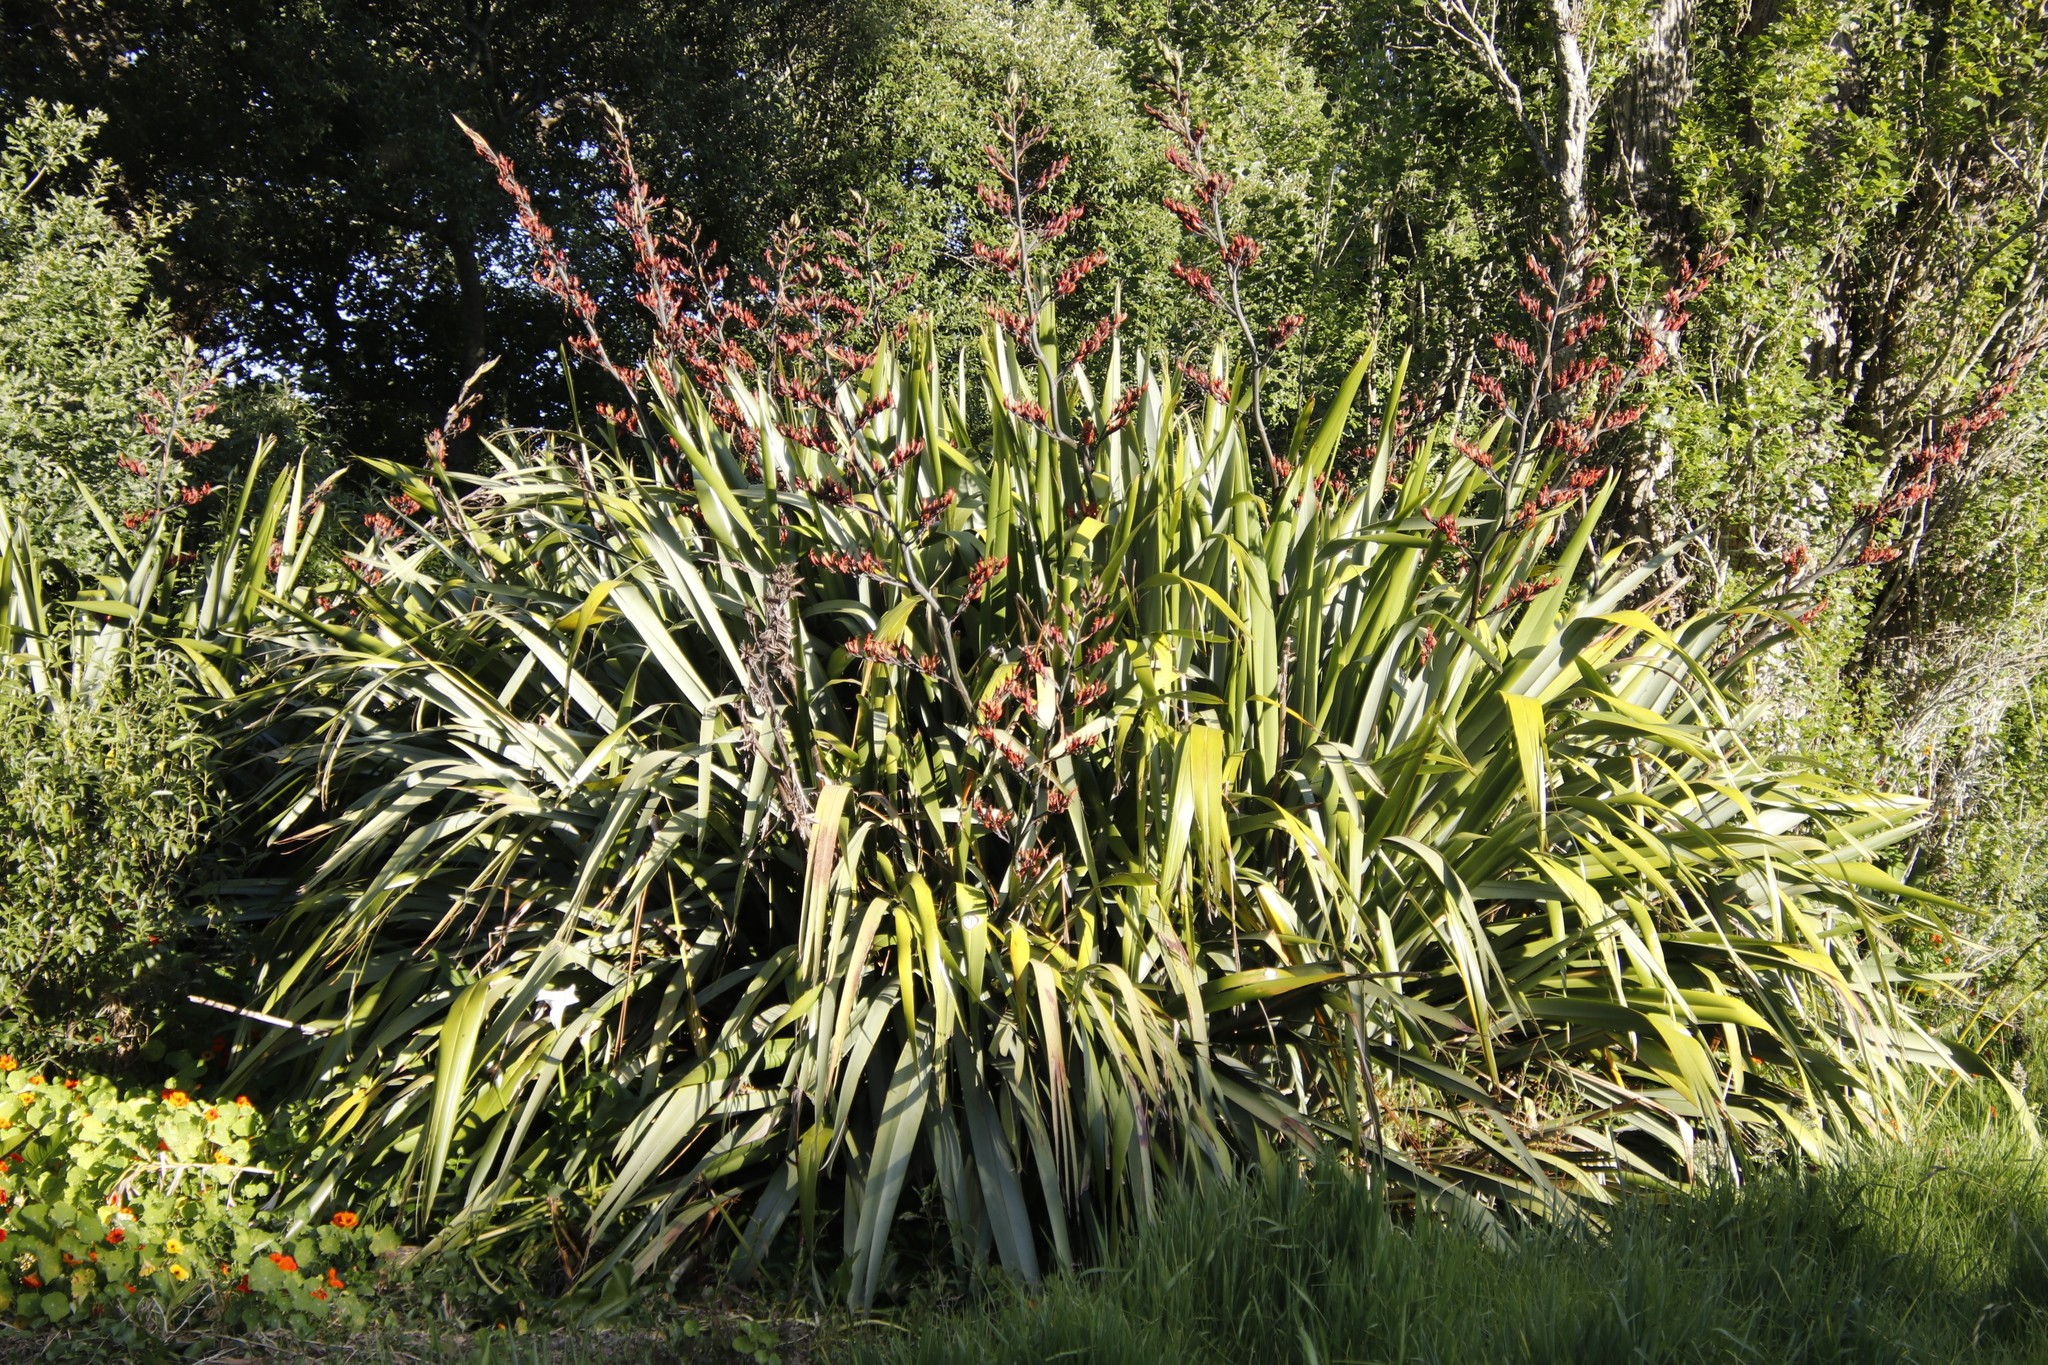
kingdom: Plantae
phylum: Tracheophyta
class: Liliopsida
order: Asparagales
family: Asphodelaceae
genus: Phormium
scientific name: Phormium tenax
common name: New zealand flax
